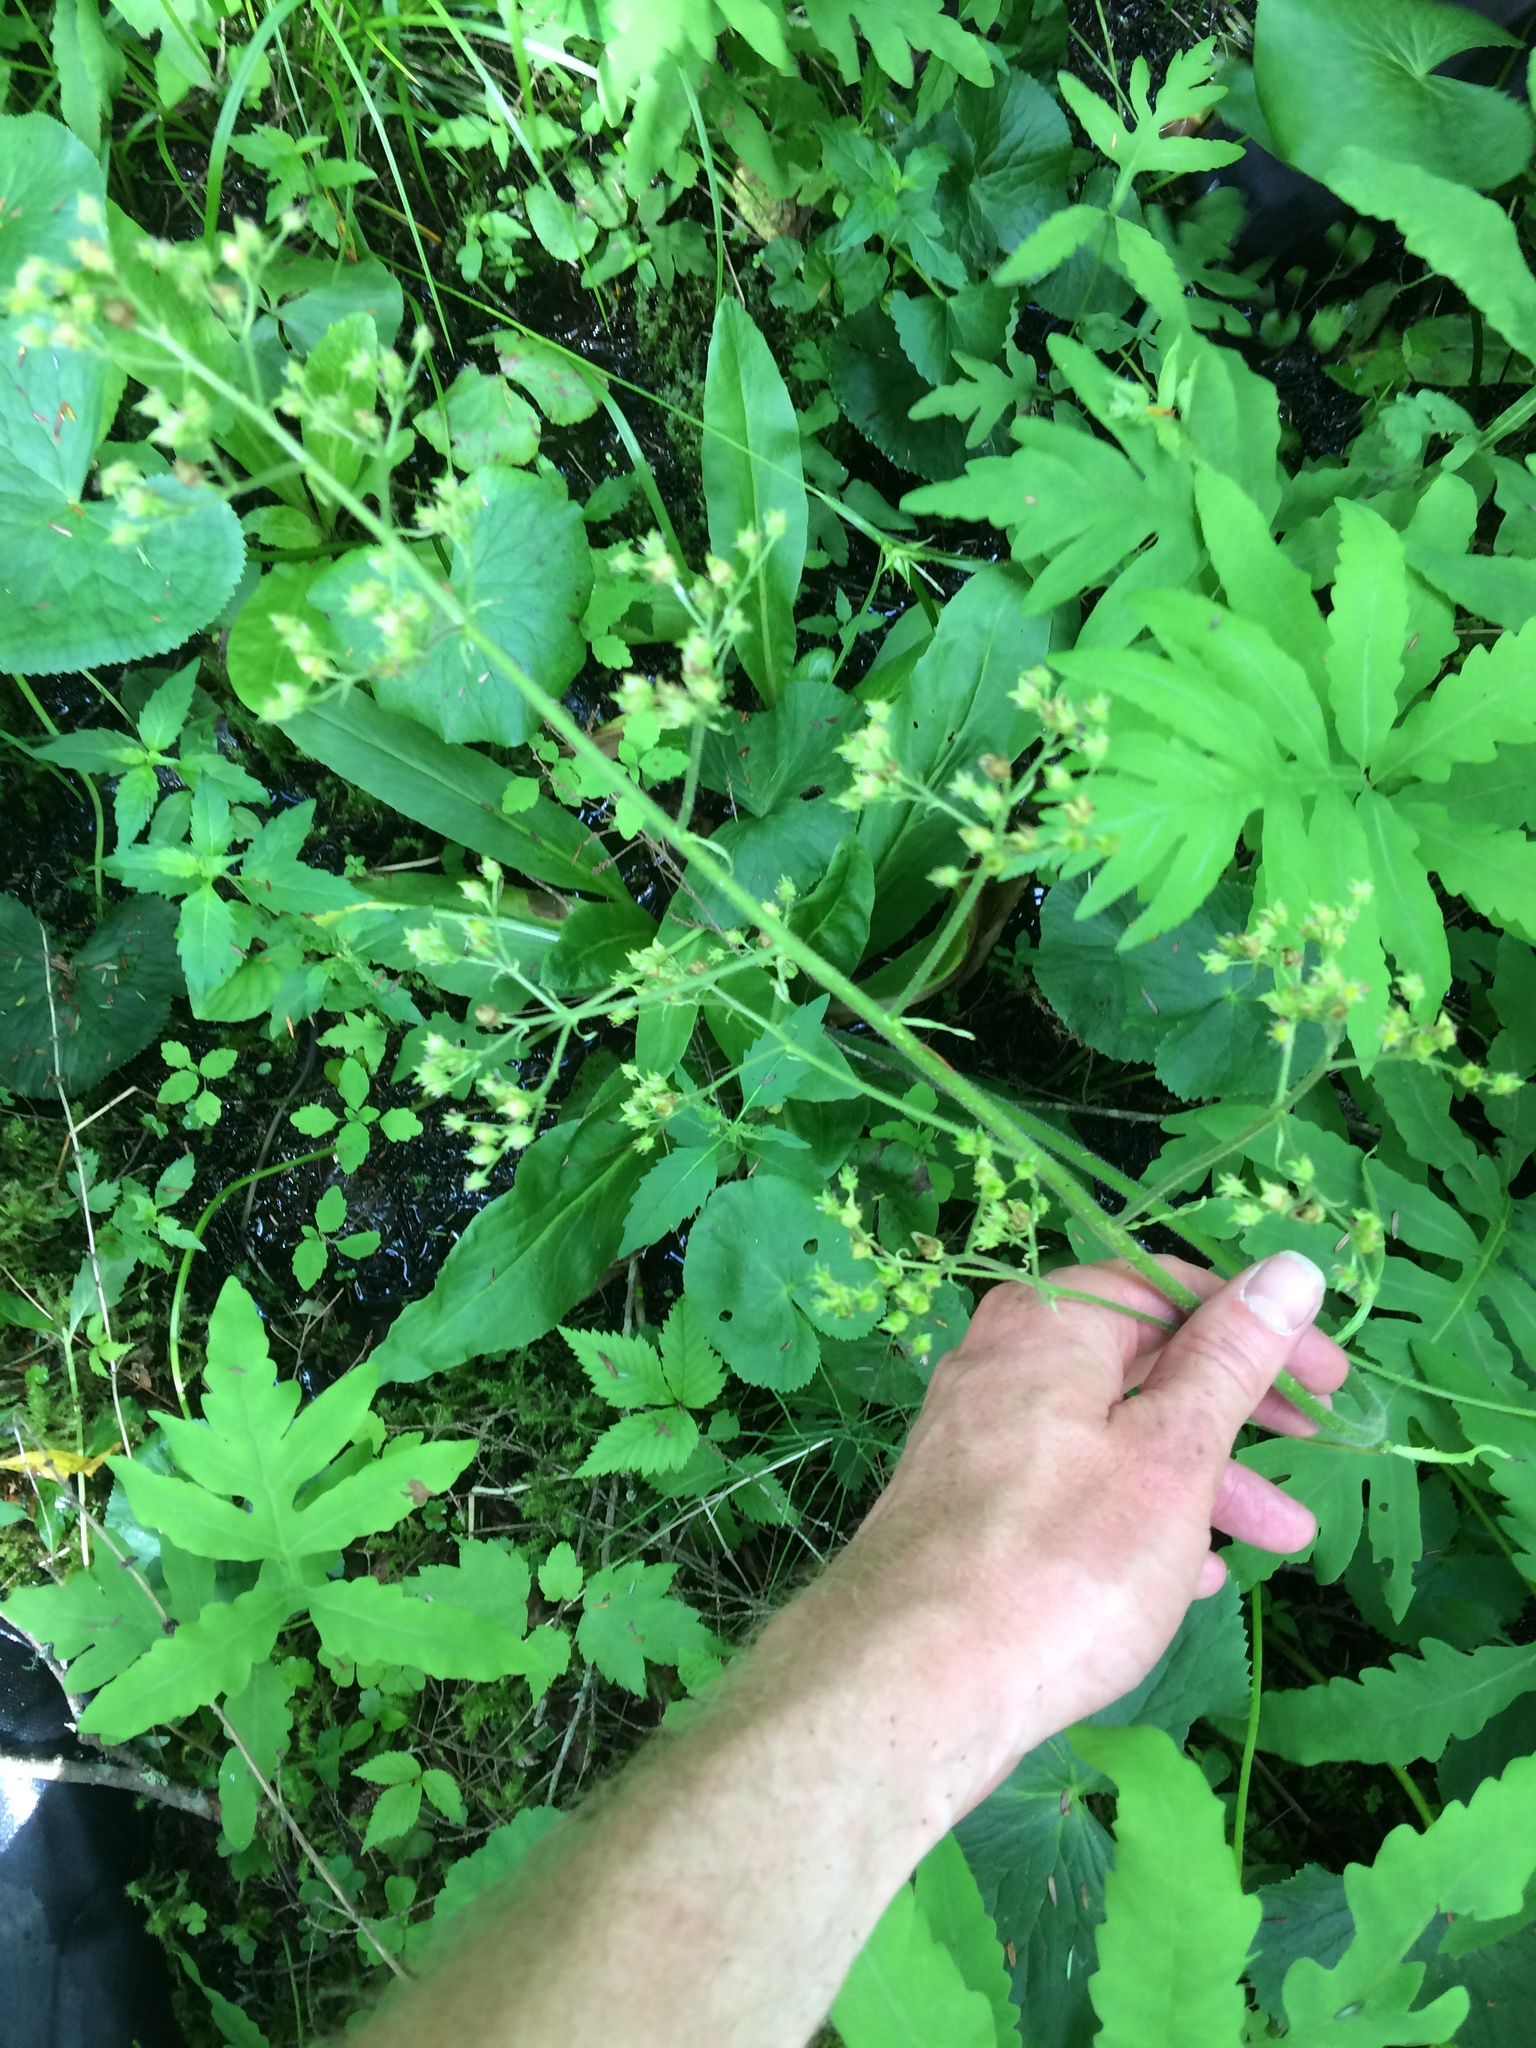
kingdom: Plantae
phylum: Tracheophyta
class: Magnoliopsida
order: Saxifragales
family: Saxifragaceae
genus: Micranthes
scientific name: Micranthes pensylvanica
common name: Marsh saxifrage
